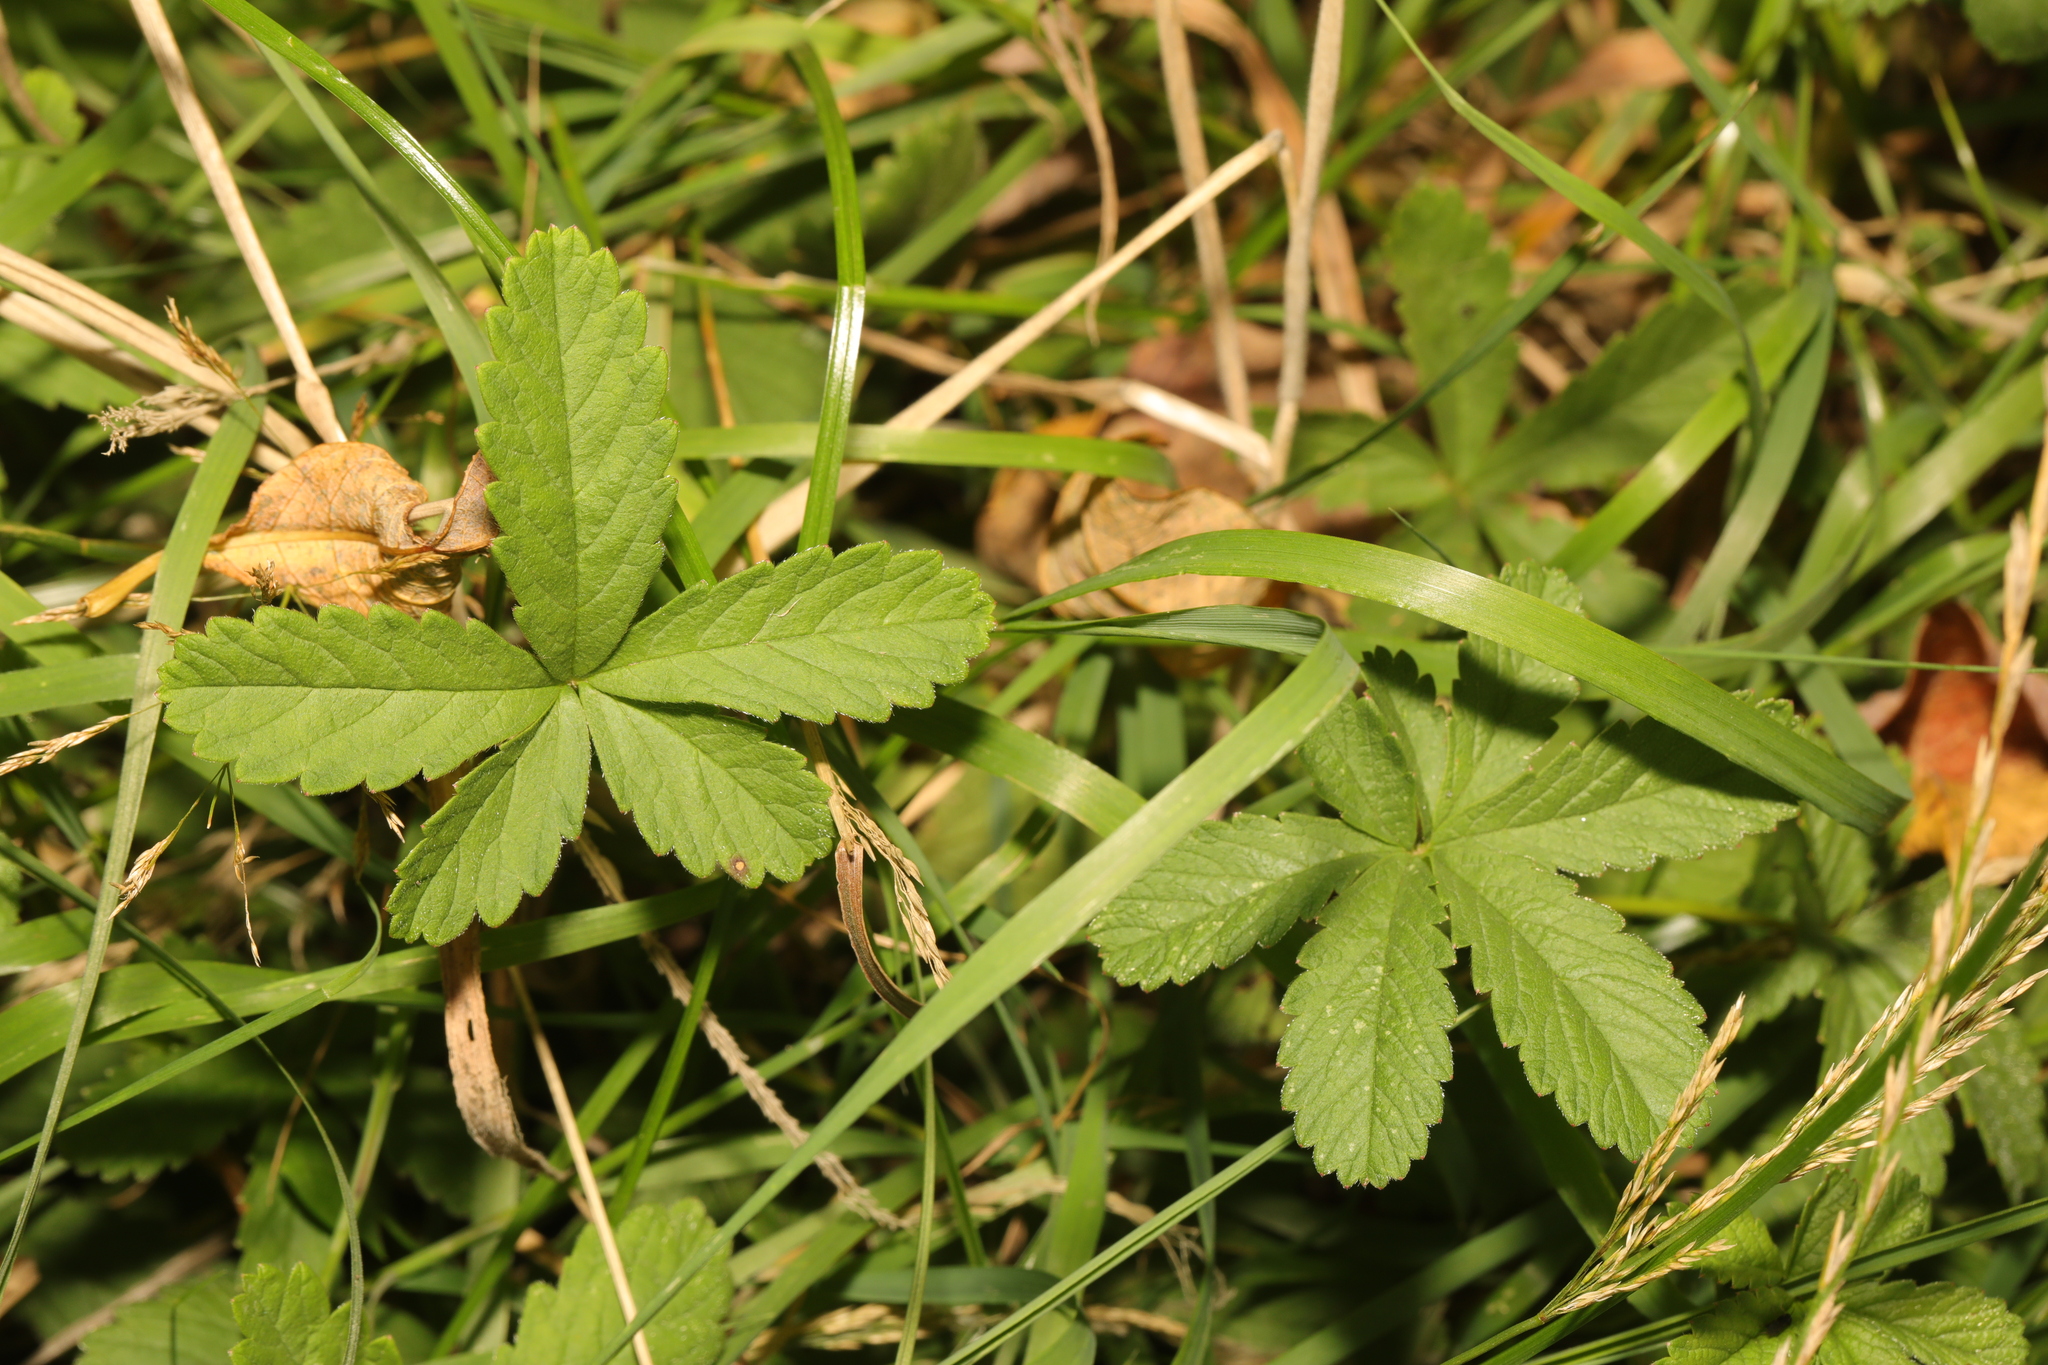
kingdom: Plantae
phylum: Tracheophyta
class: Magnoliopsida
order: Rosales
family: Rosaceae
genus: Potentilla
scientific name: Potentilla reptans
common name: Creeping cinquefoil
